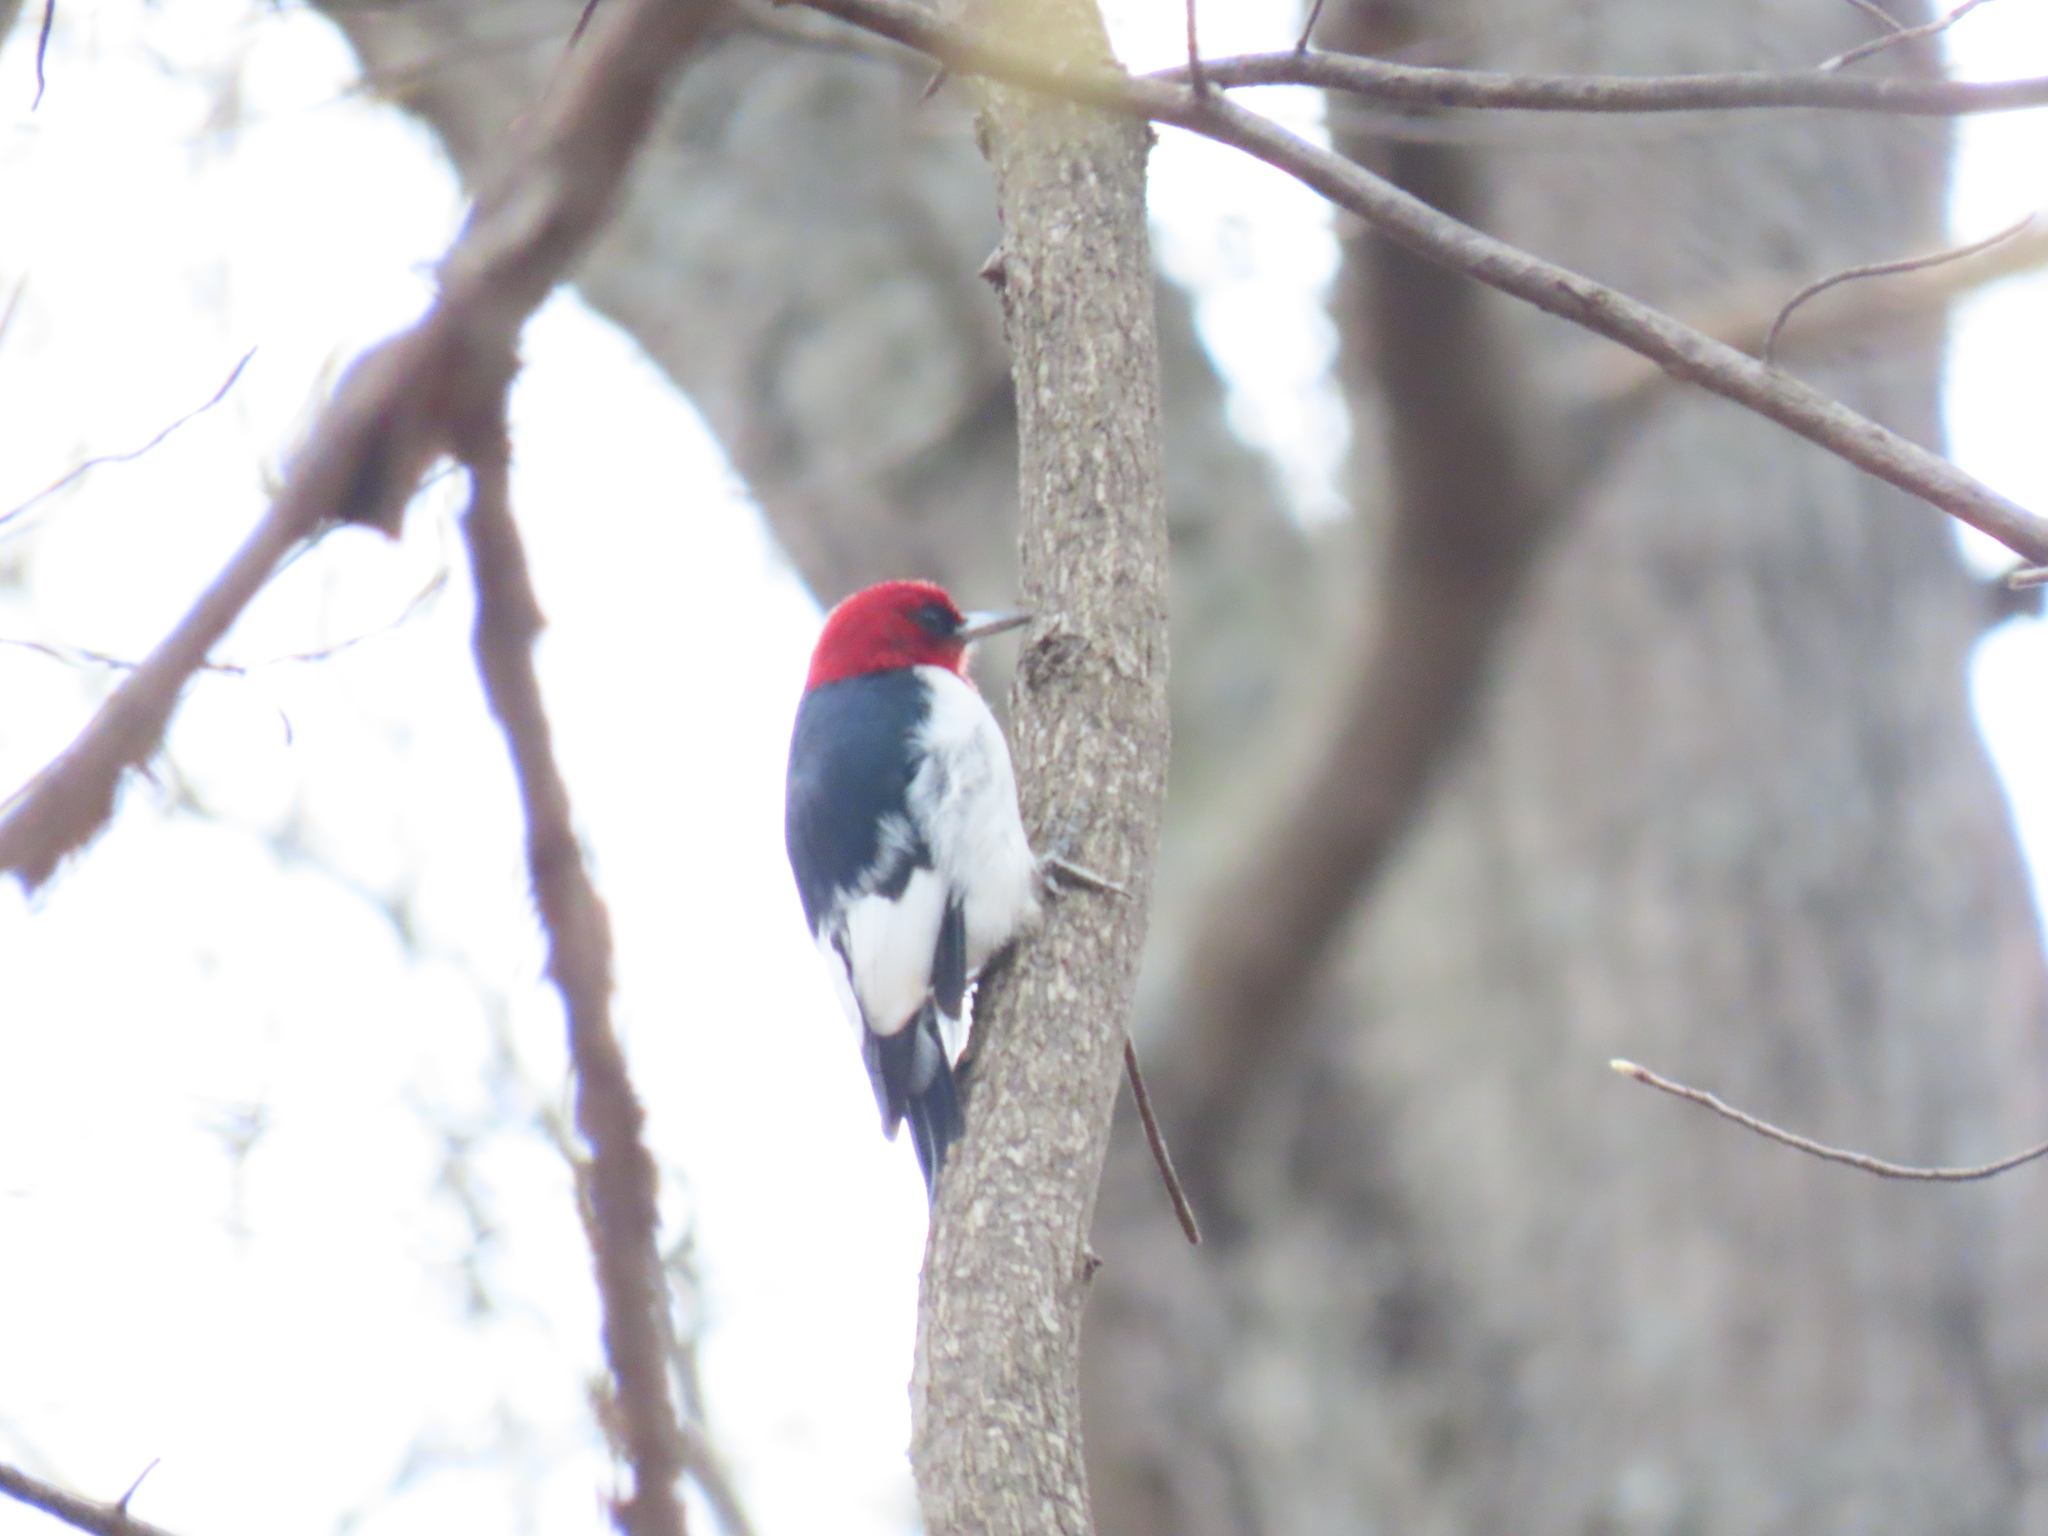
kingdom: Animalia
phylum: Chordata
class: Aves
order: Piciformes
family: Picidae
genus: Melanerpes
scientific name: Melanerpes erythrocephalus
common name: Red-headed woodpecker
